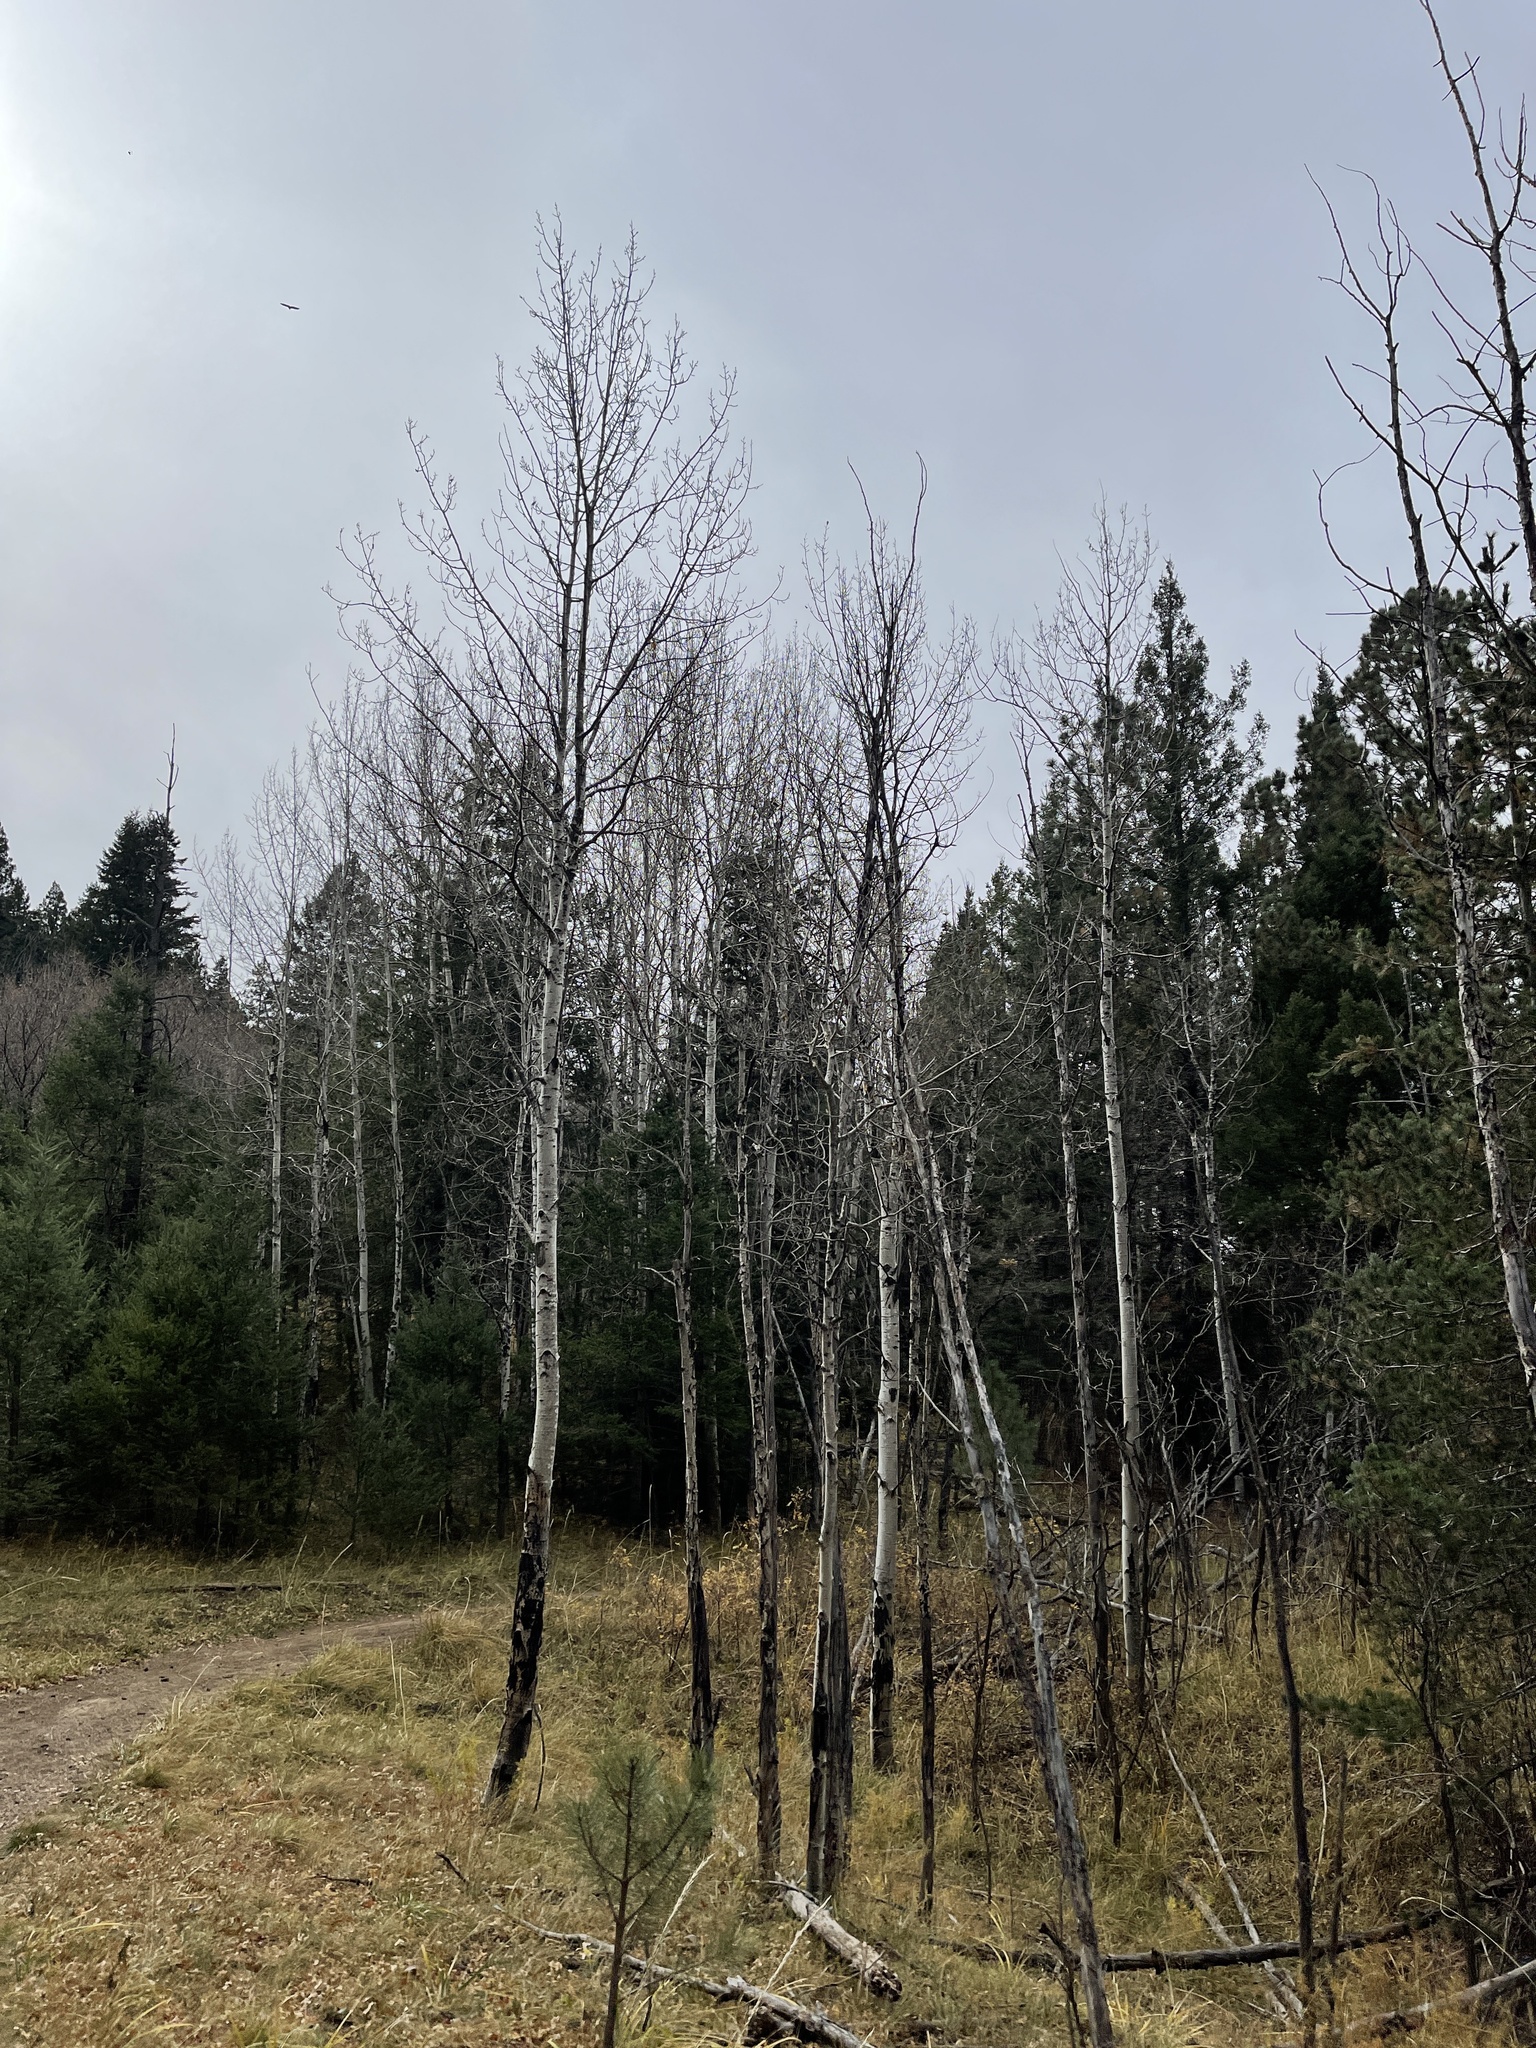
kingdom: Plantae
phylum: Tracheophyta
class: Magnoliopsida
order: Malpighiales
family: Salicaceae
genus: Populus
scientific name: Populus tremuloides
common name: Quaking aspen
